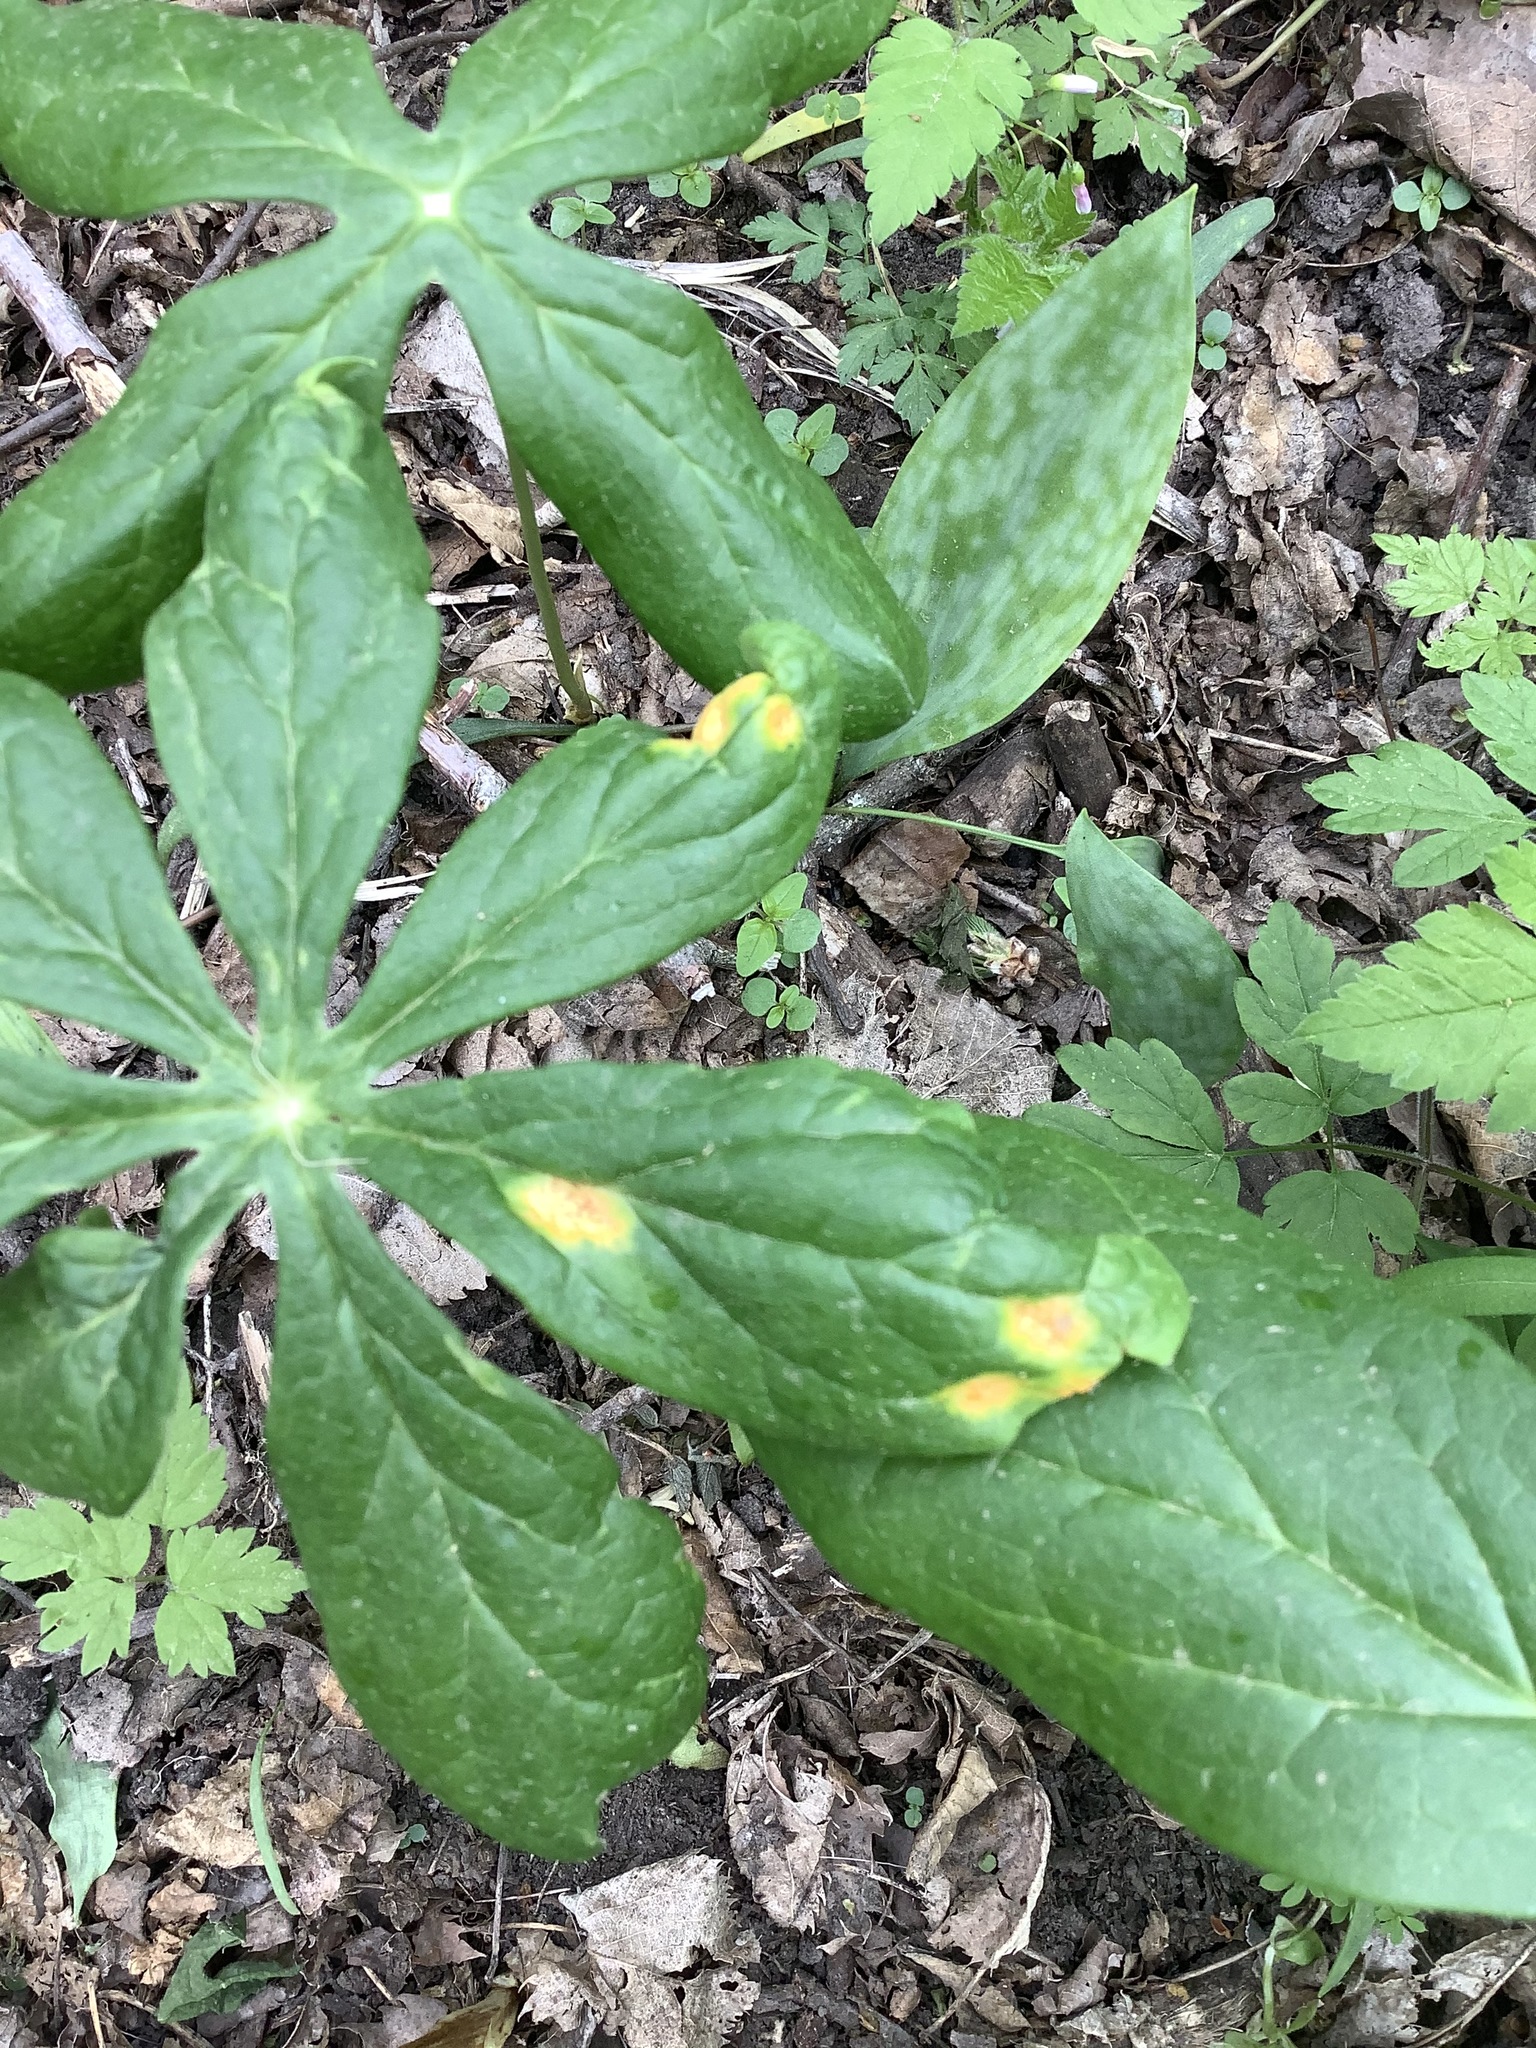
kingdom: Fungi
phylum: Basidiomycota
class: Pucciniomycetes
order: Pucciniales
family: Pucciniaceae
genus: Puccinia
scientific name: Puccinia podophylli
